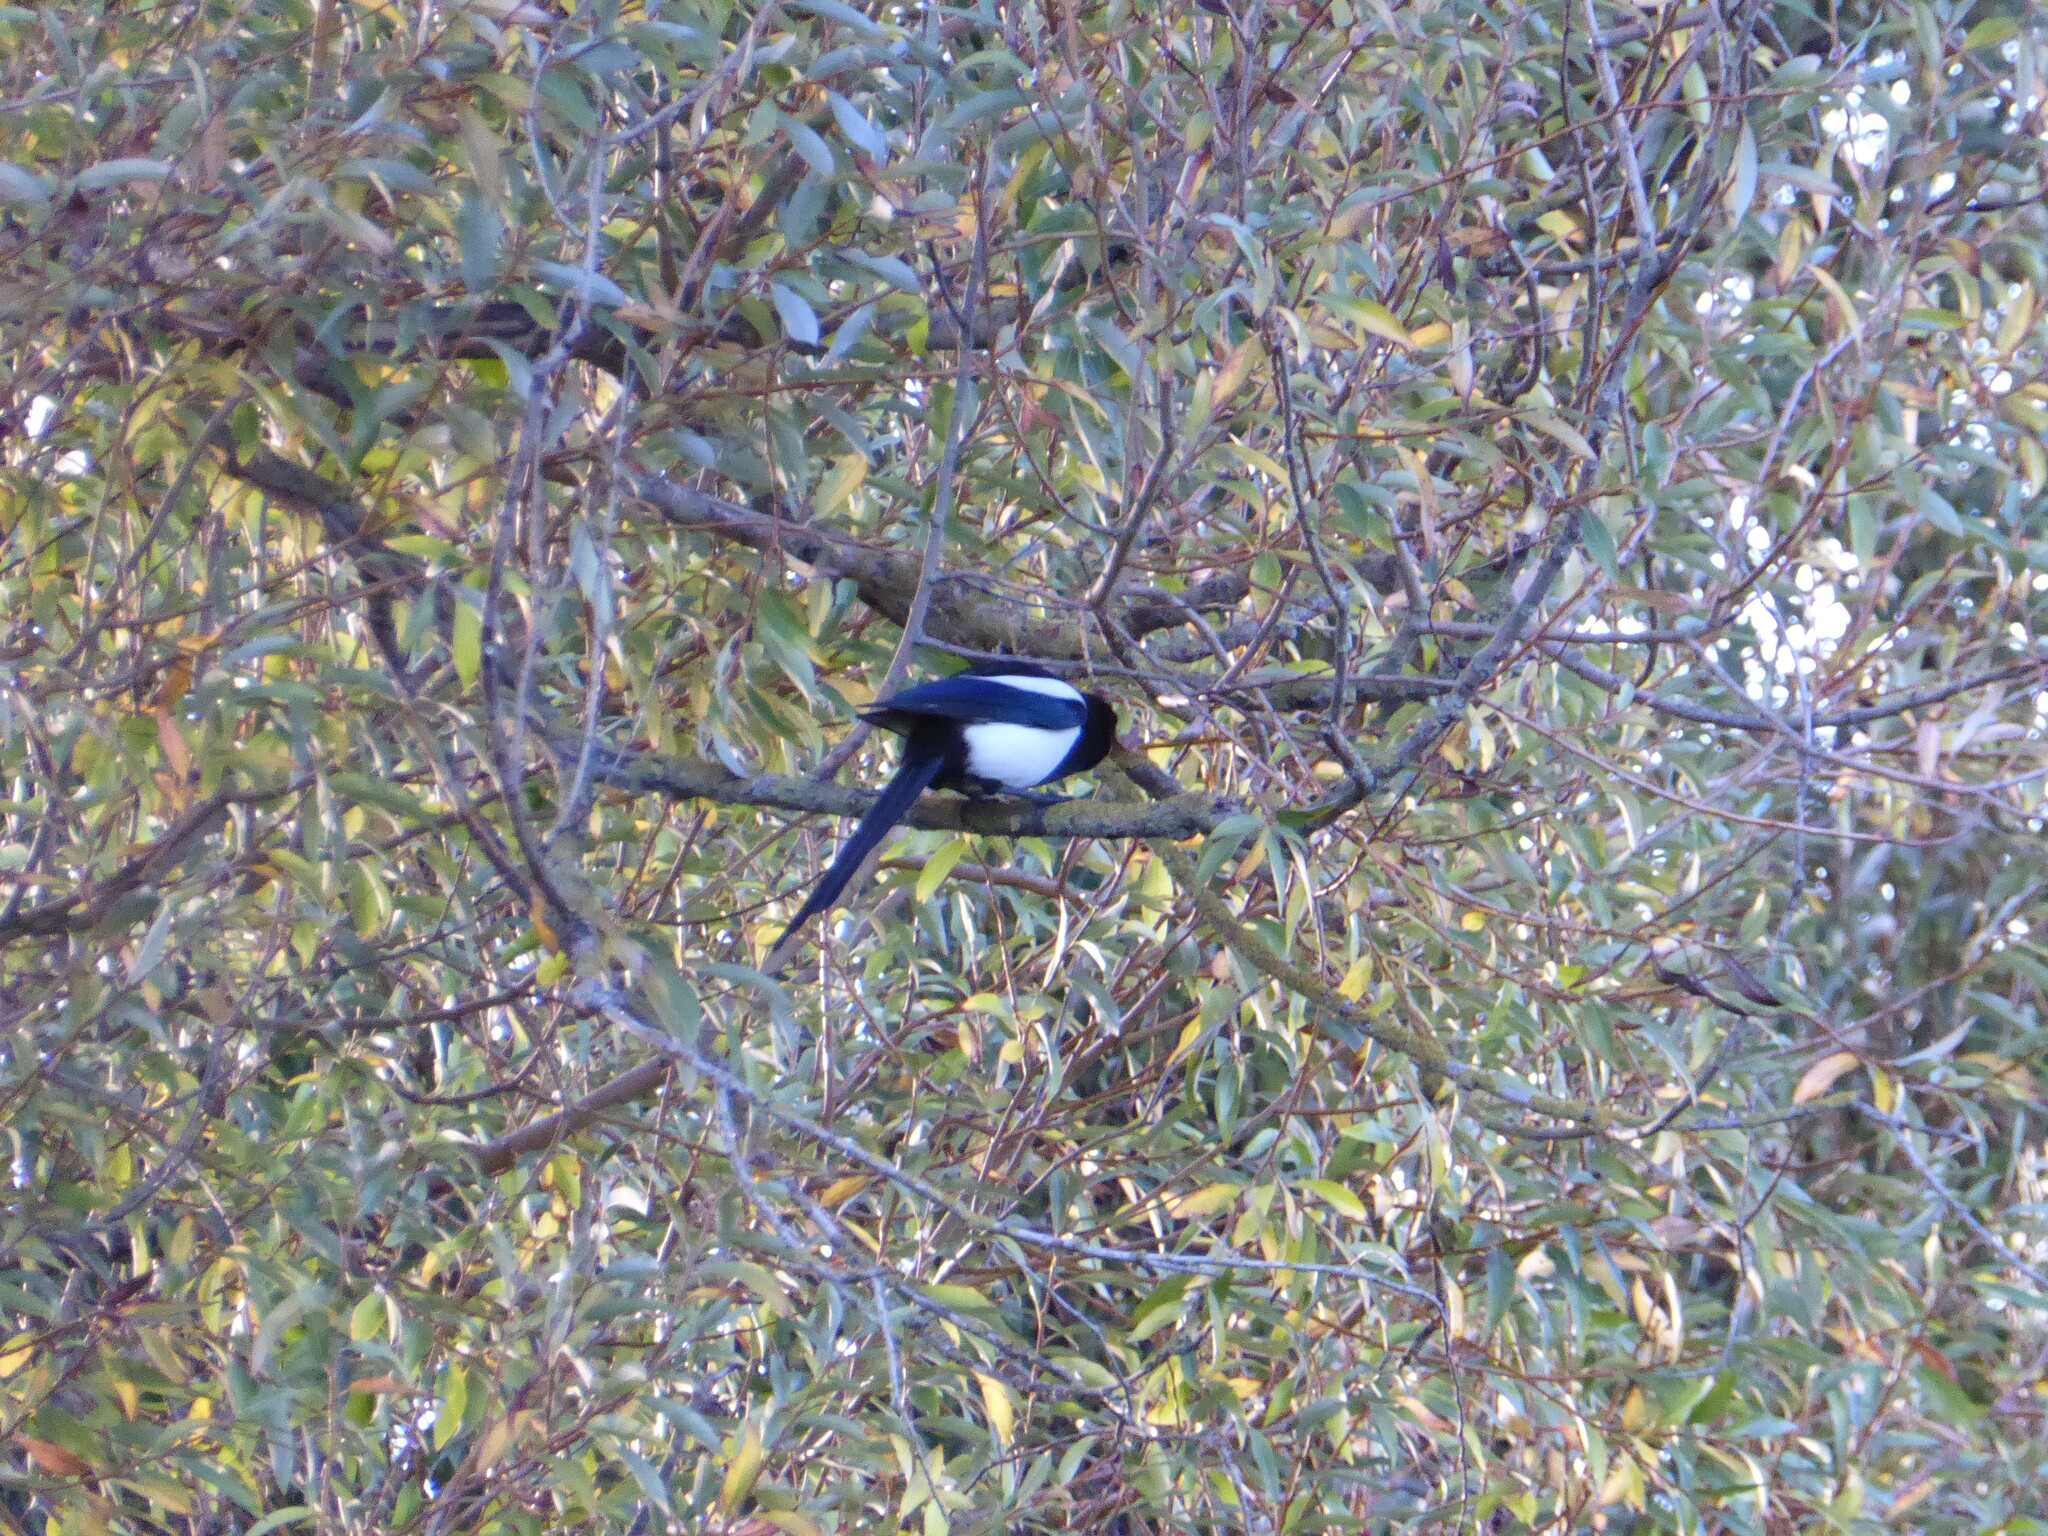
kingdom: Animalia
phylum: Chordata
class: Aves
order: Passeriformes
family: Corvidae
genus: Pica
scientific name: Pica pica
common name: Eurasian magpie
